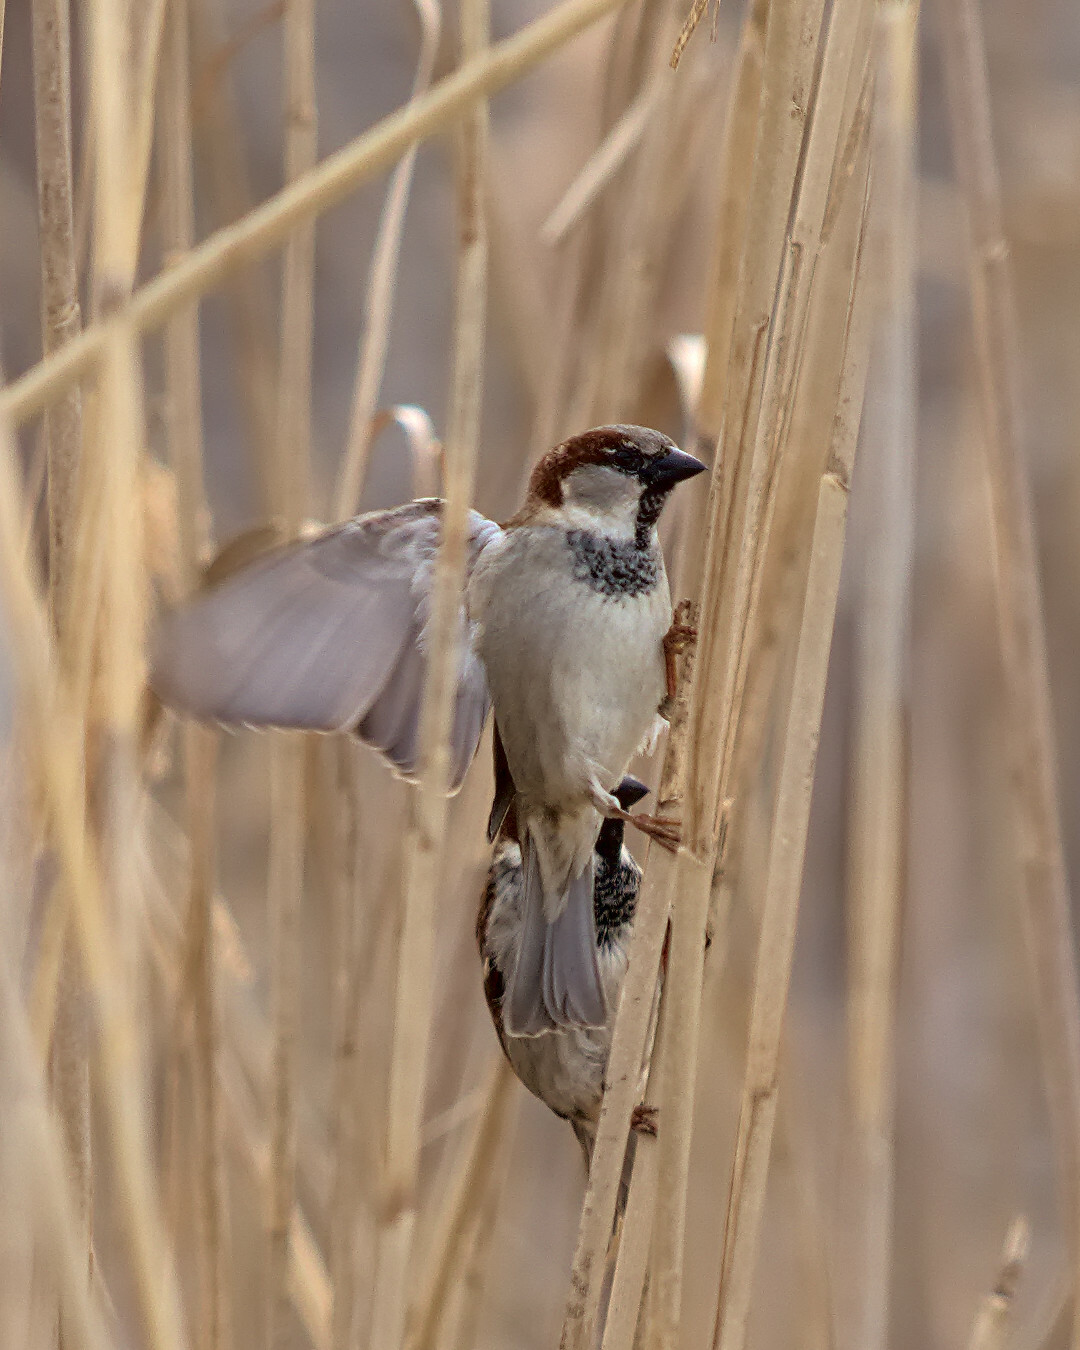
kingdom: Animalia
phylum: Chordata
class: Aves
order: Passeriformes
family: Passeridae
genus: Passer
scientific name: Passer domesticus
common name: House sparrow
